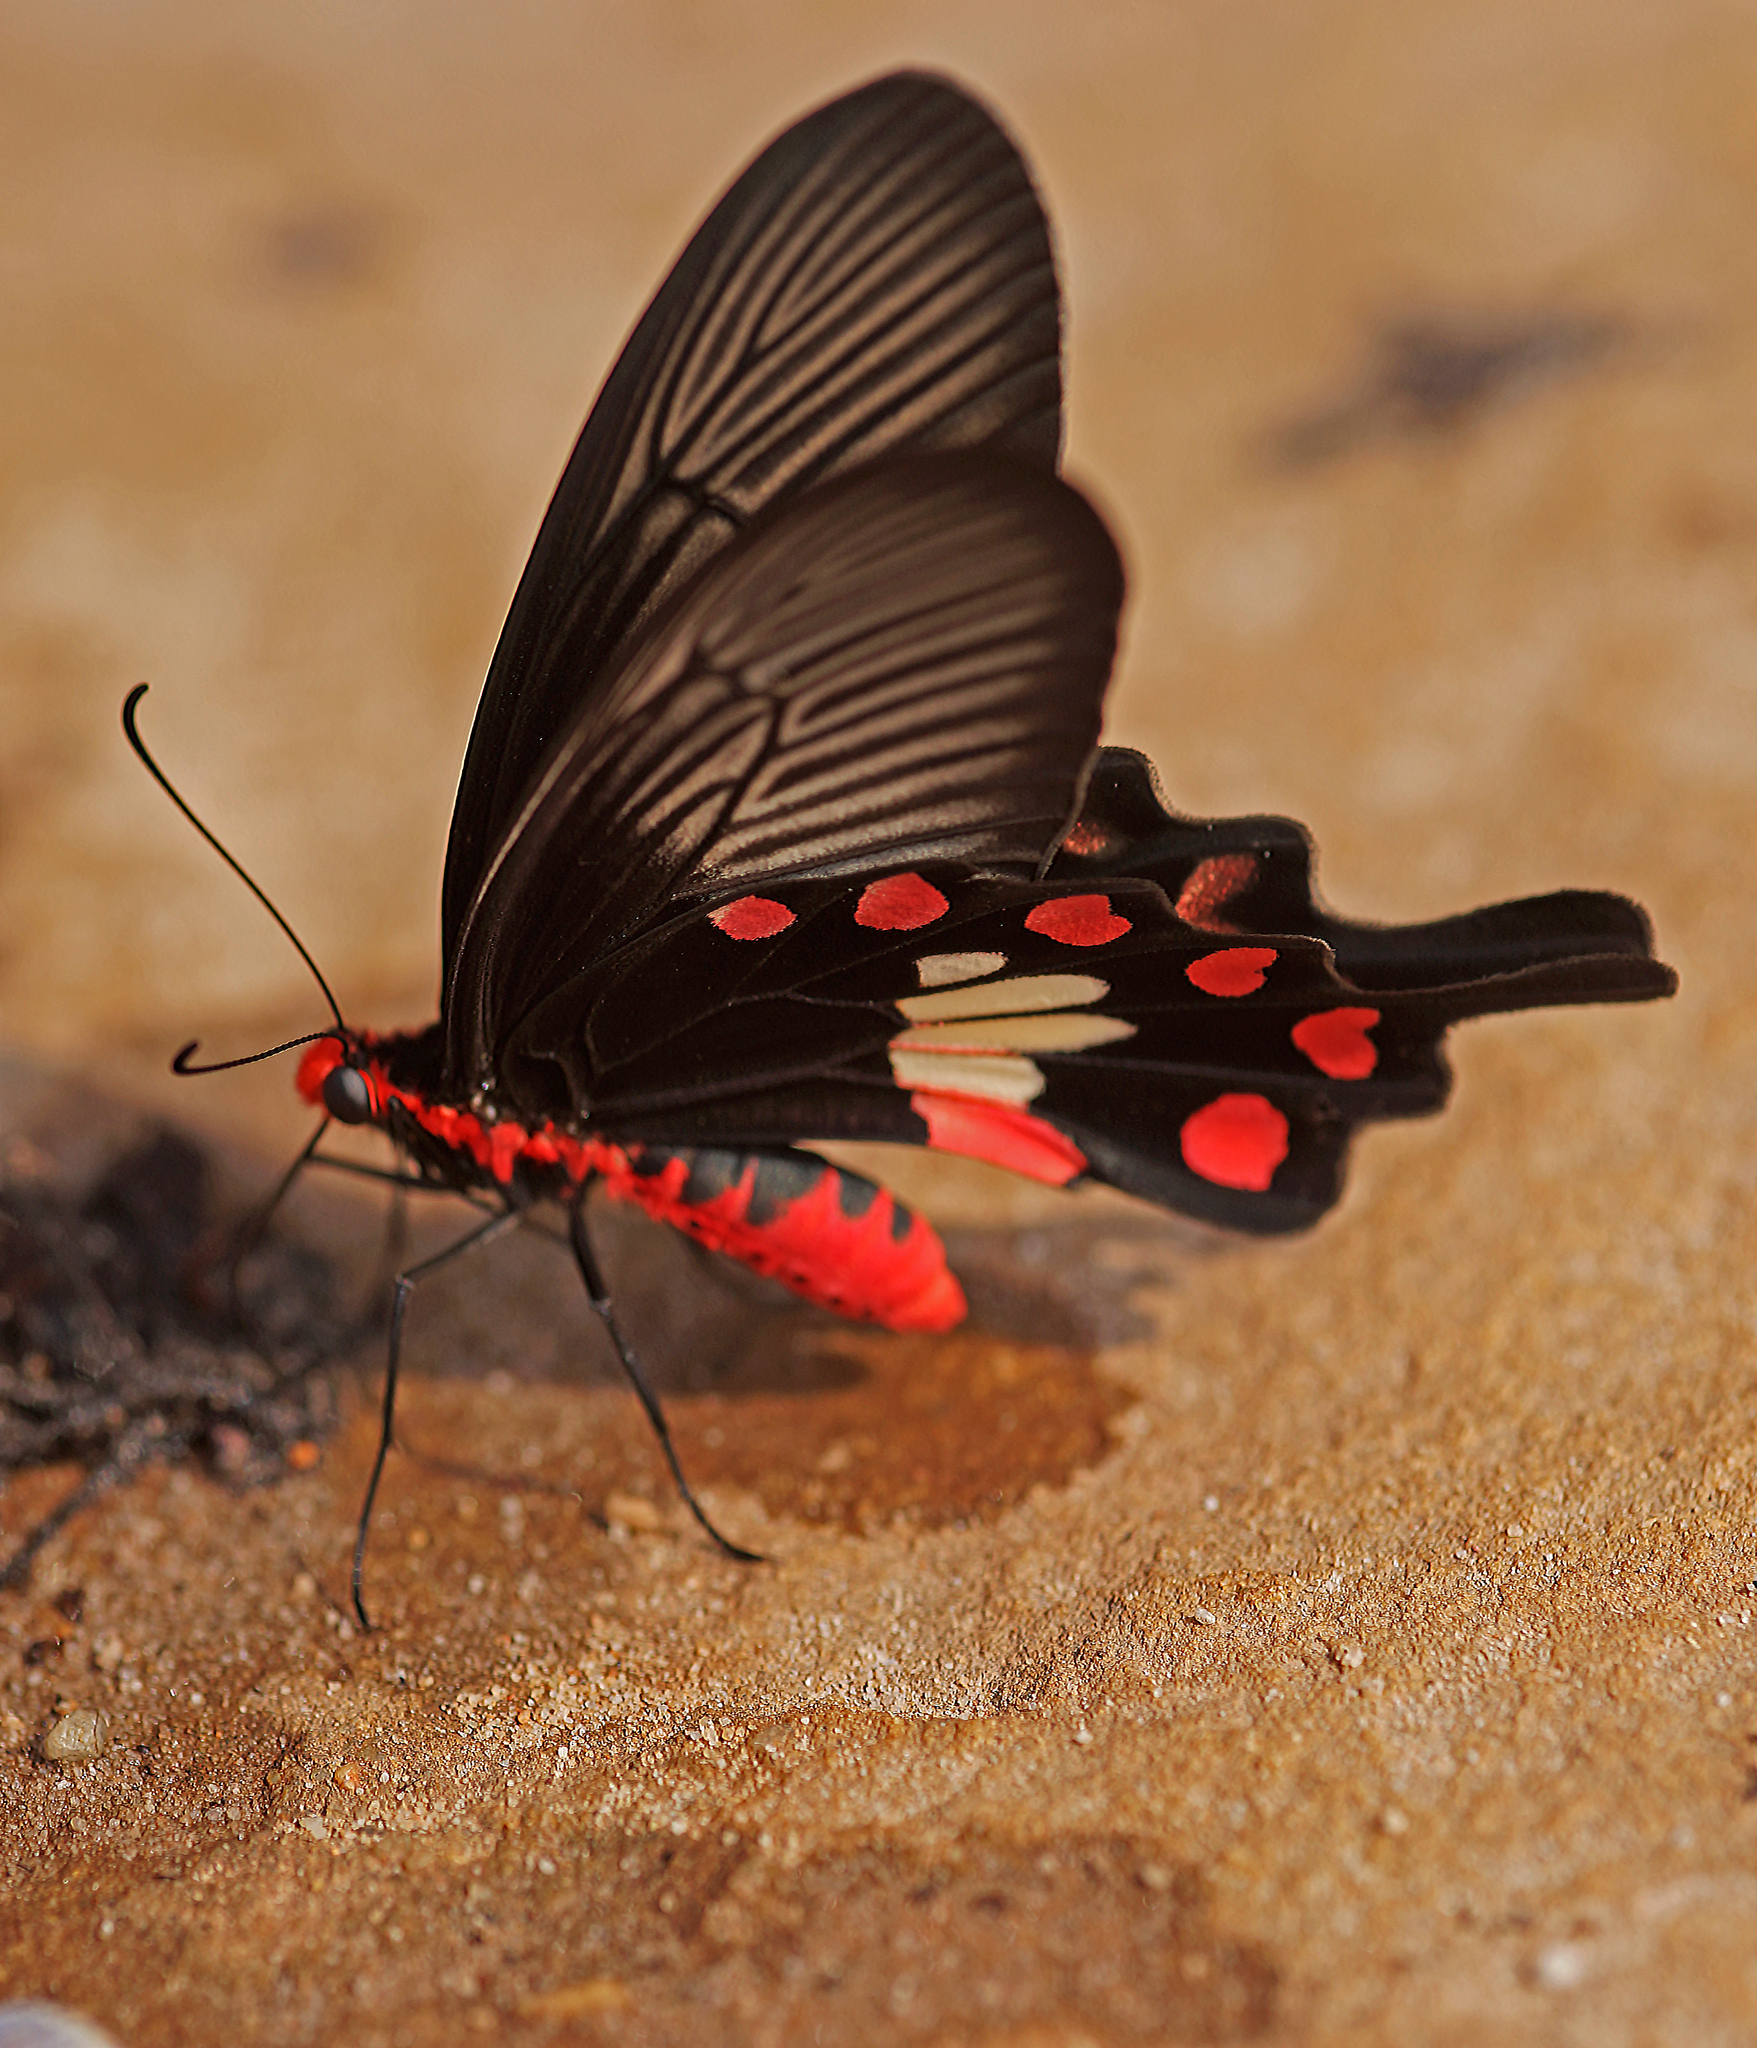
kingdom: Animalia
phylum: Arthropoda
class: Insecta
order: Lepidoptera
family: Papilionidae
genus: Pachliopta
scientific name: Pachliopta aristolochiae
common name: Common rose
